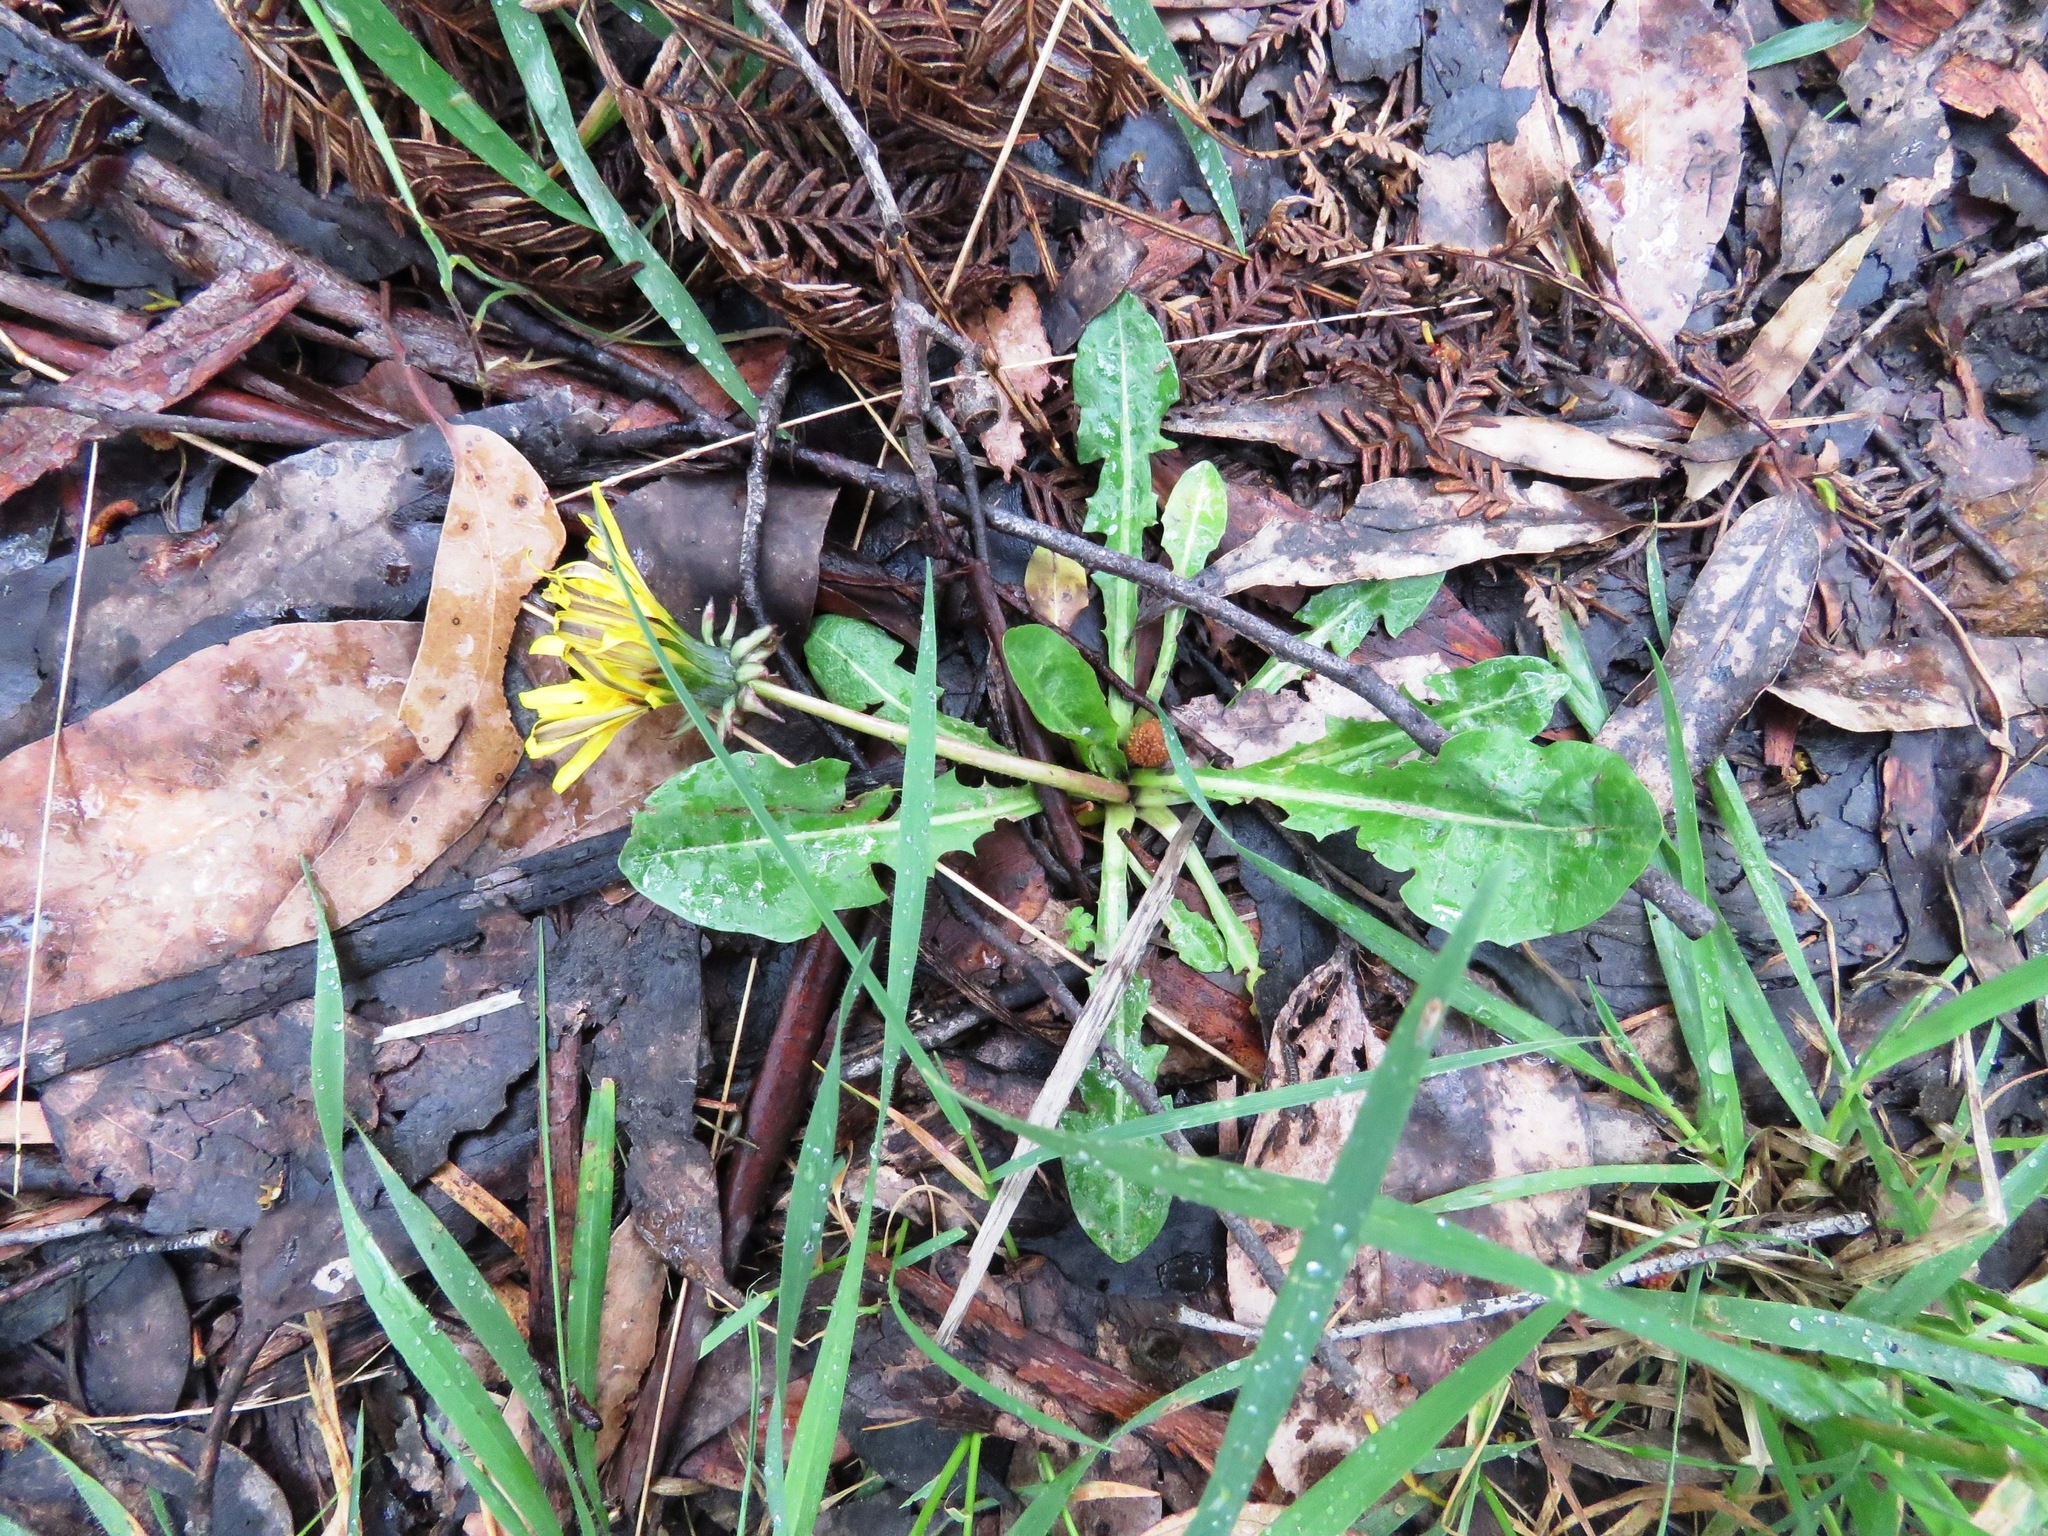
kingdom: Plantae
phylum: Tracheophyta
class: Magnoliopsida
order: Asterales
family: Asteraceae
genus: Taraxacum
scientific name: Taraxacum officinale
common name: Common dandelion
